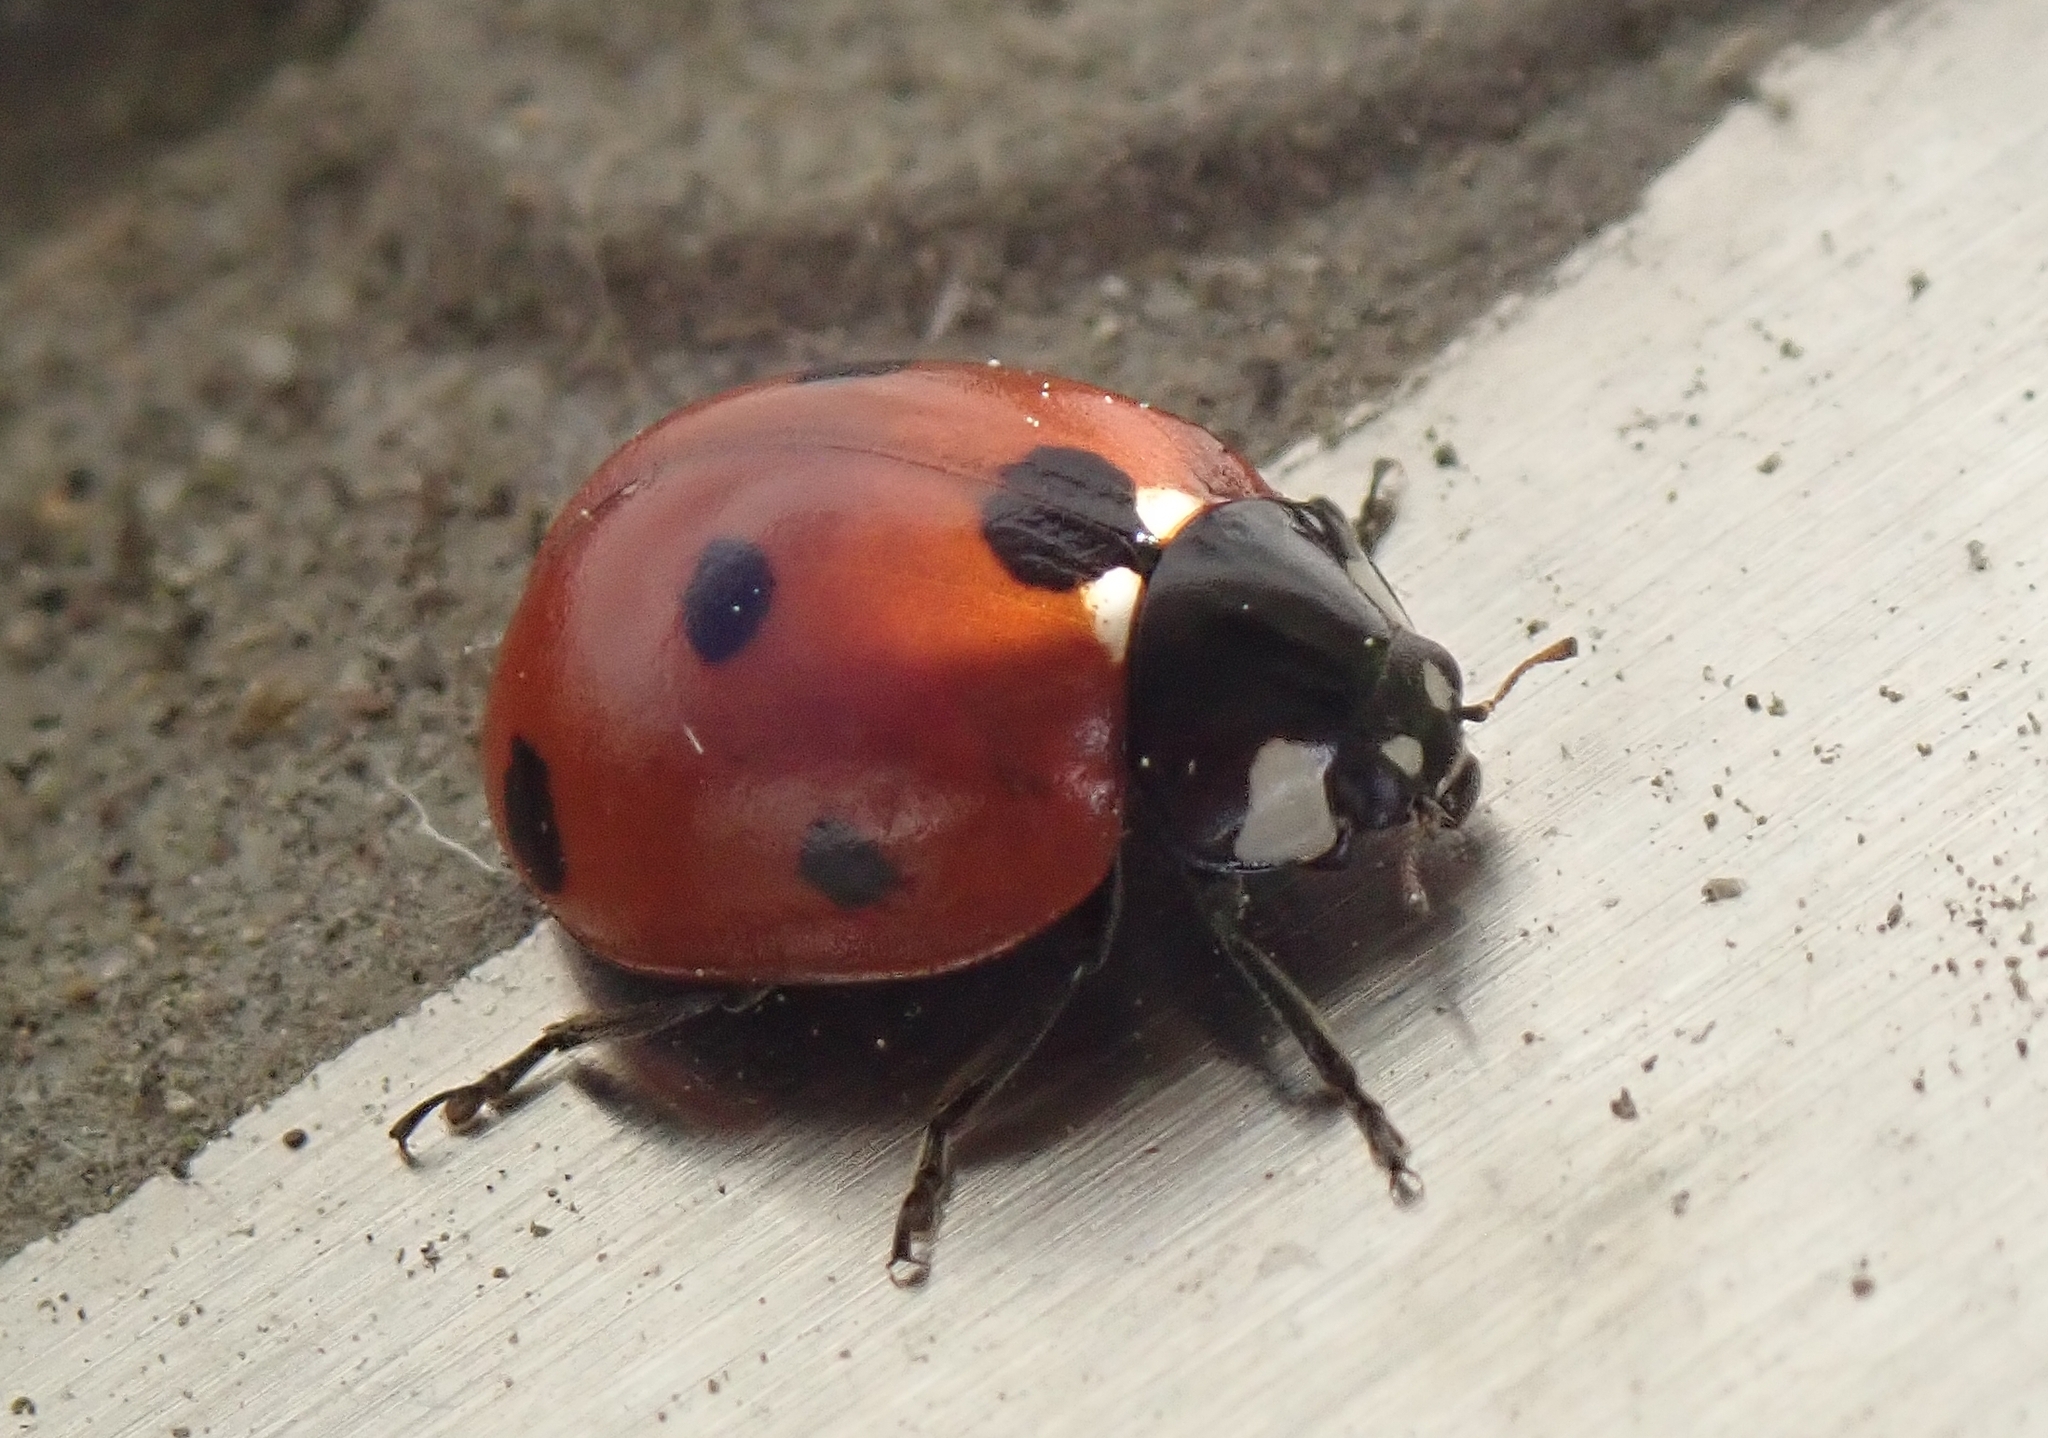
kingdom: Animalia
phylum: Arthropoda
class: Insecta
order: Coleoptera
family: Coccinellidae
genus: Coccinella
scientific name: Coccinella septempunctata
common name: Sevenspotted lady beetle
